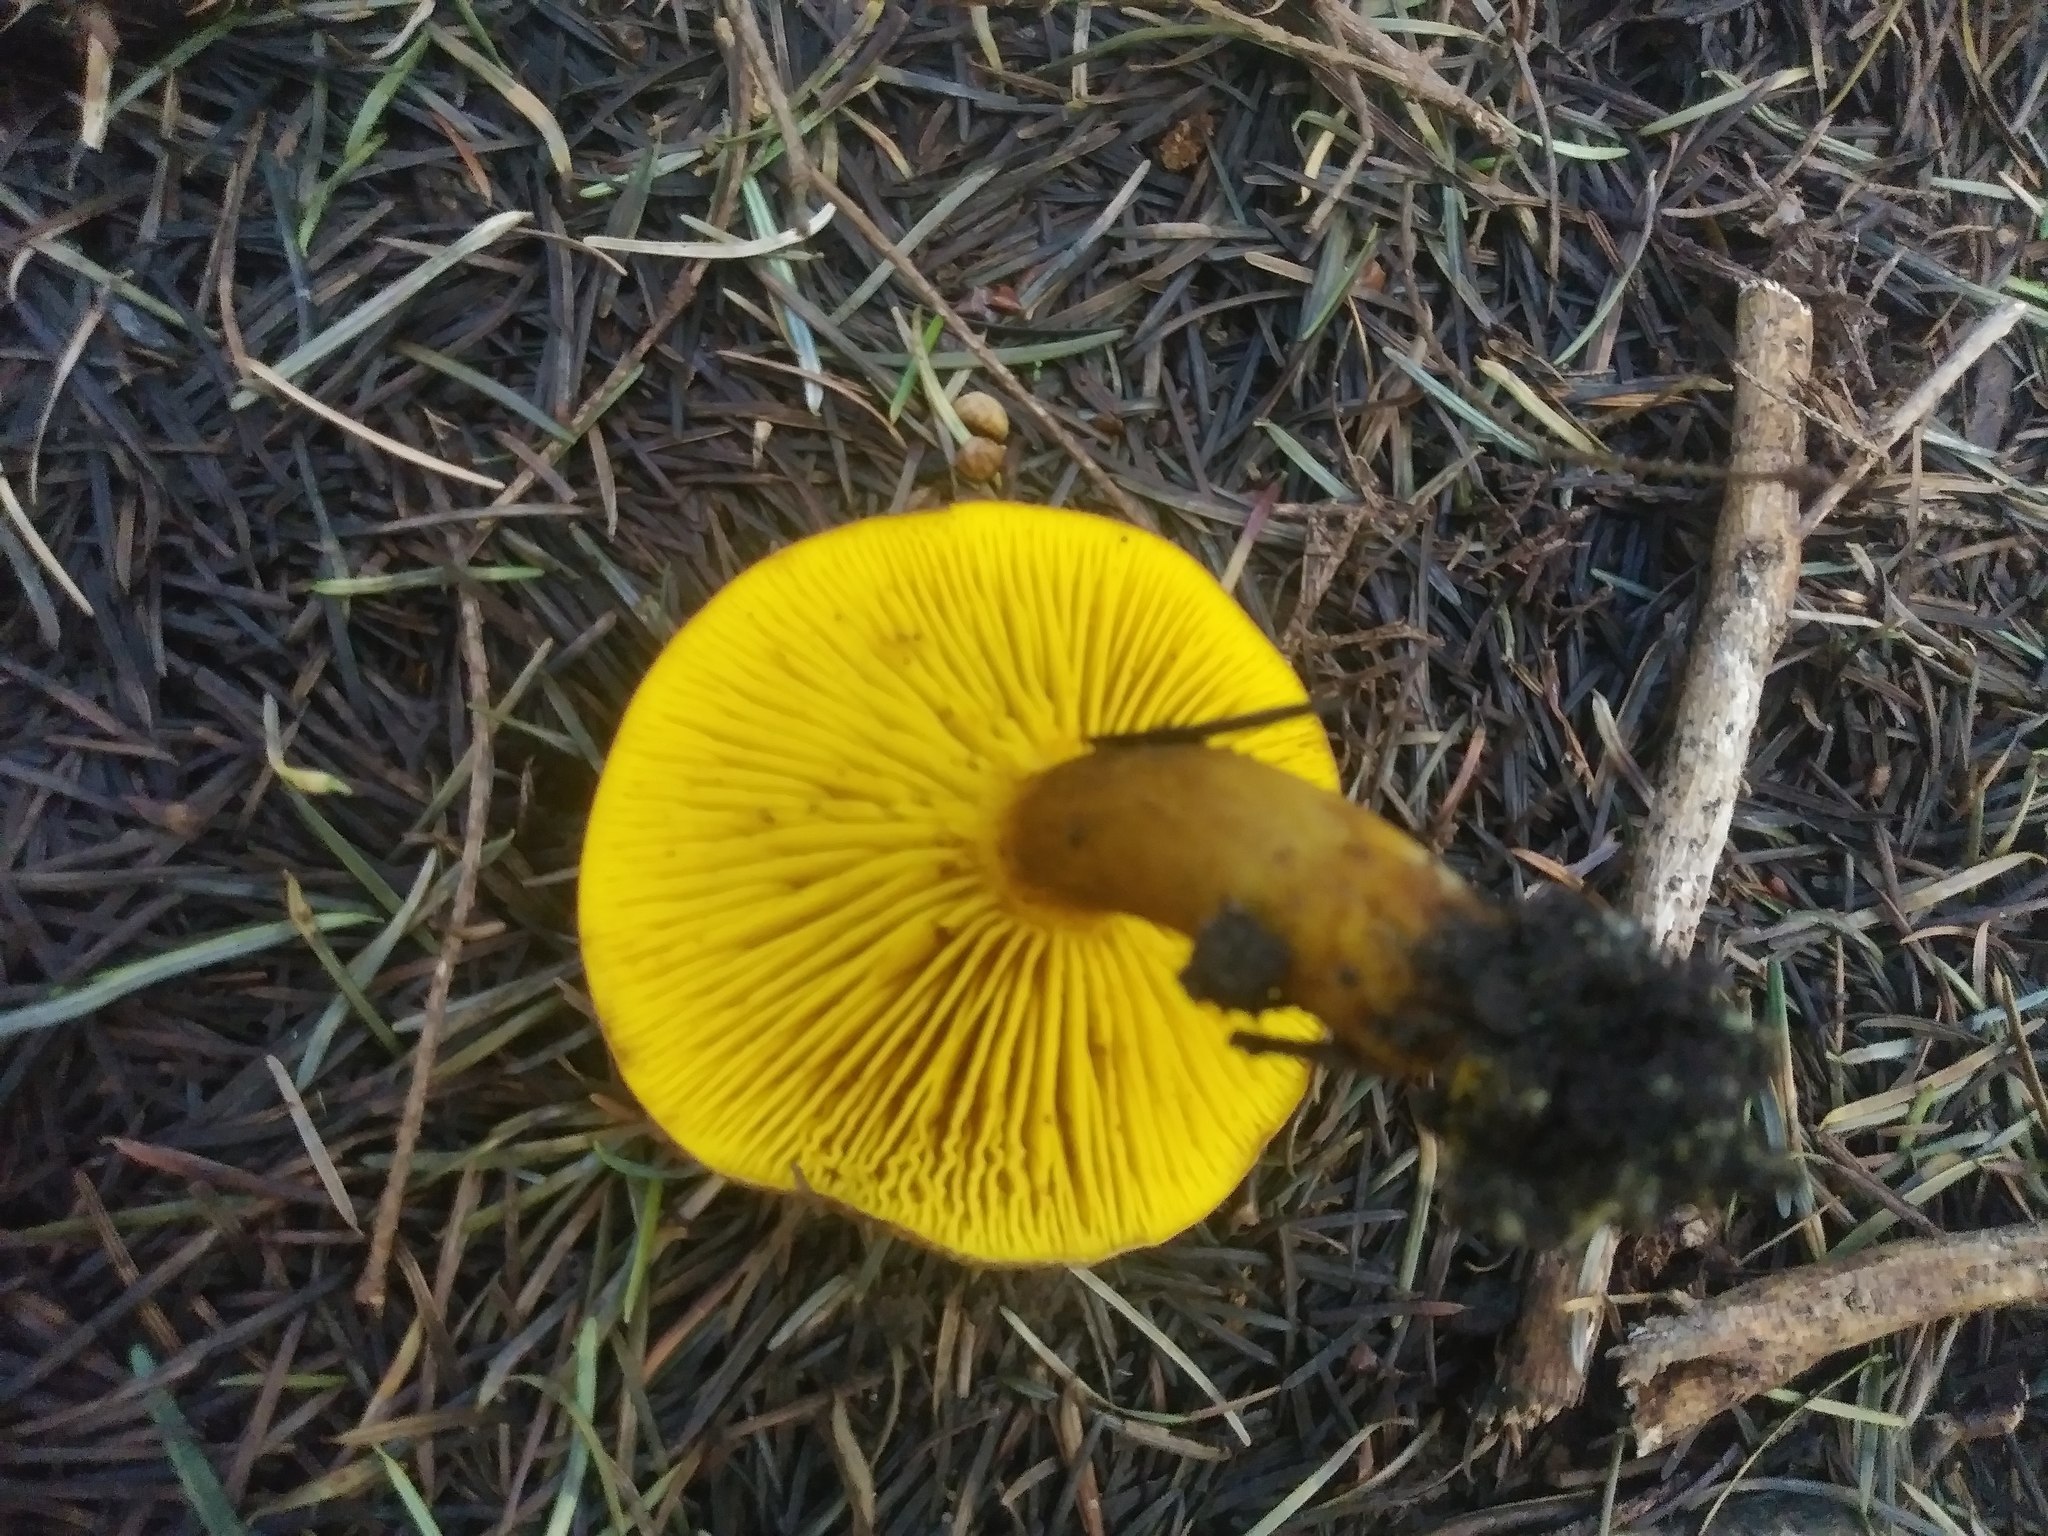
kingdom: Fungi
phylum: Basidiomycota
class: Agaricomycetes
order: Boletales
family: Boletaceae
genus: Phylloporus
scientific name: Phylloporus arenicola
